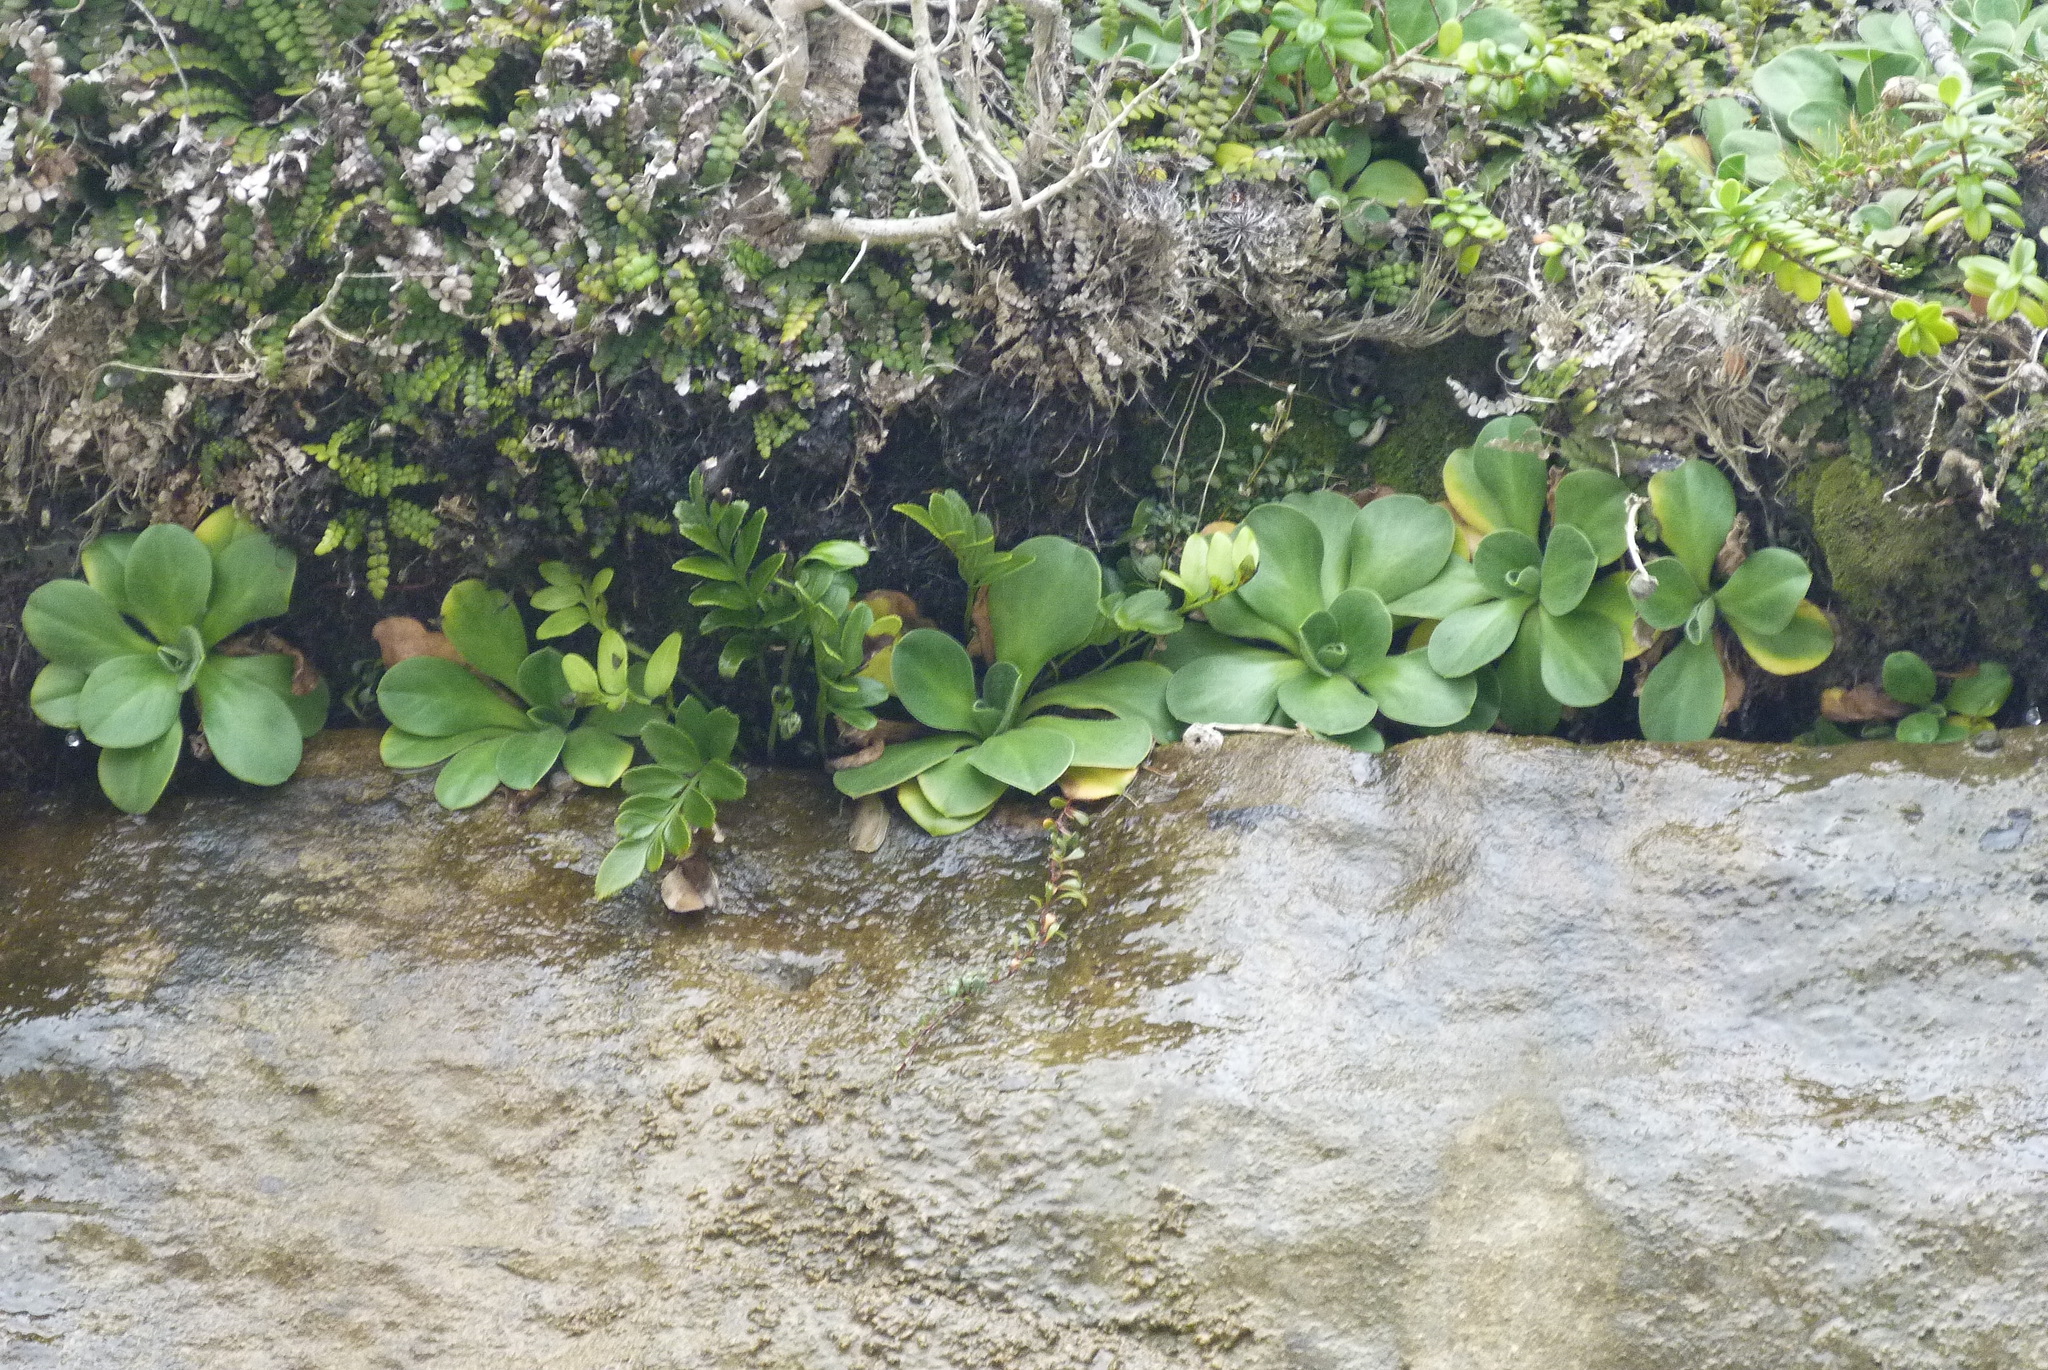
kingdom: Plantae
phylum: Tracheophyta
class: Magnoliopsida
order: Asterales
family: Asteraceae
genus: Craspedia
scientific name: Craspedia
